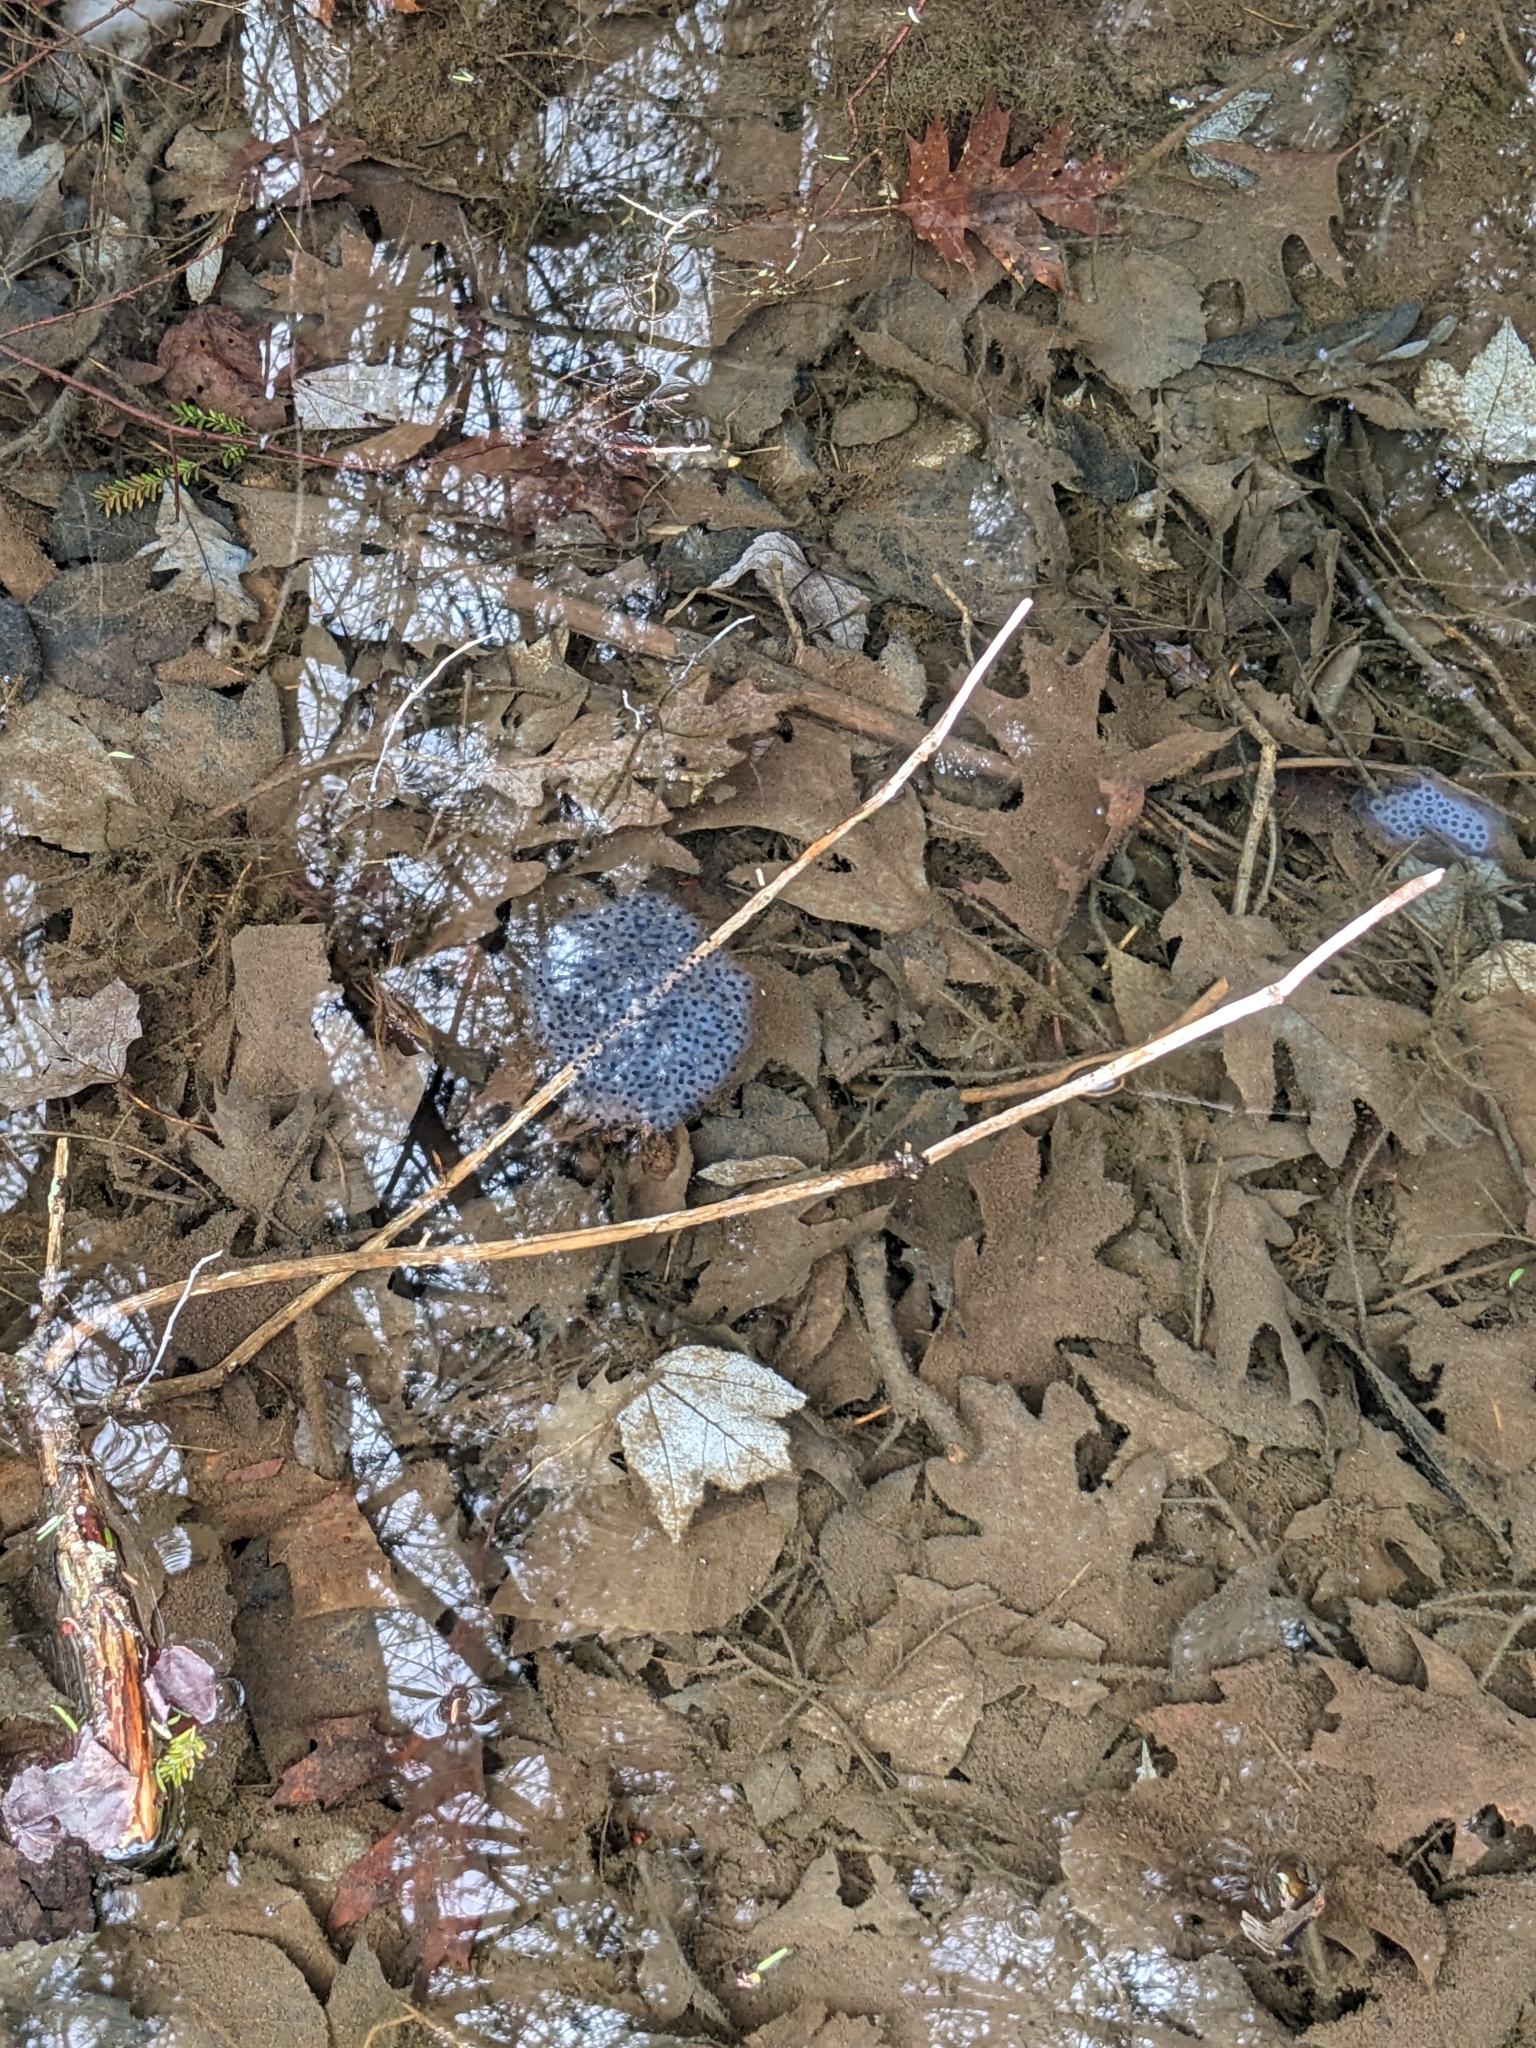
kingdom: Animalia
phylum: Chordata
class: Amphibia
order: Anura
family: Ranidae
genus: Lithobates
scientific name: Lithobates sylvaticus
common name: Wood frog
